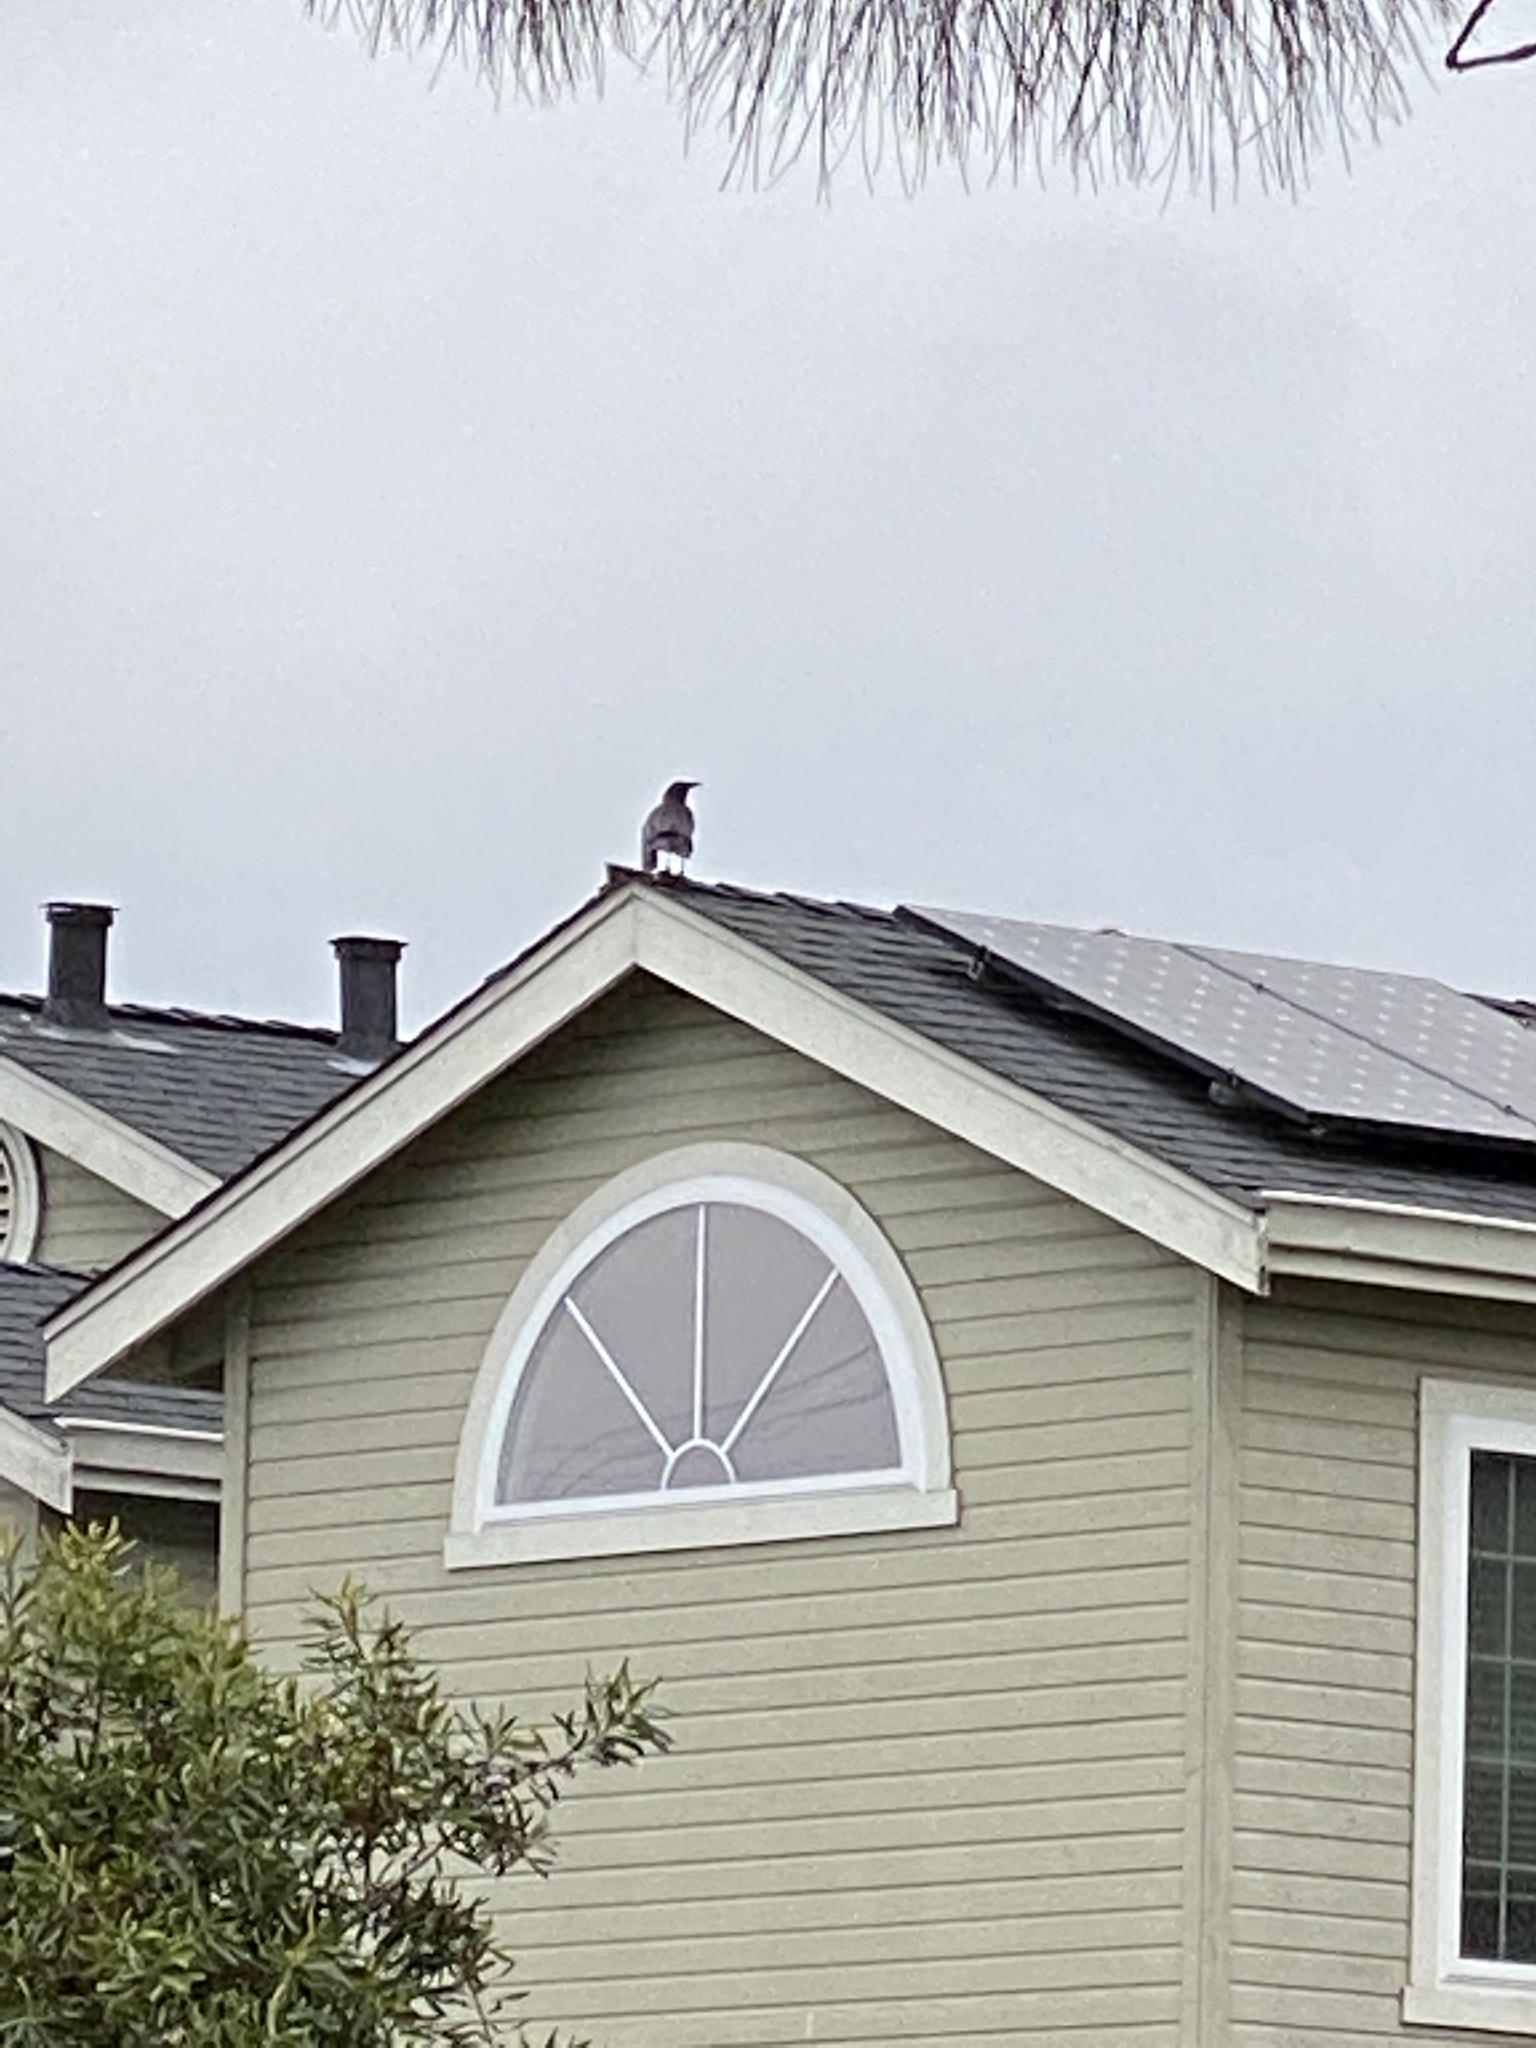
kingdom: Animalia
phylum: Chordata
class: Aves
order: Passeriformes
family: Corvidae
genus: Corvus
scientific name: Corvus brachyrhynchos
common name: American crow
